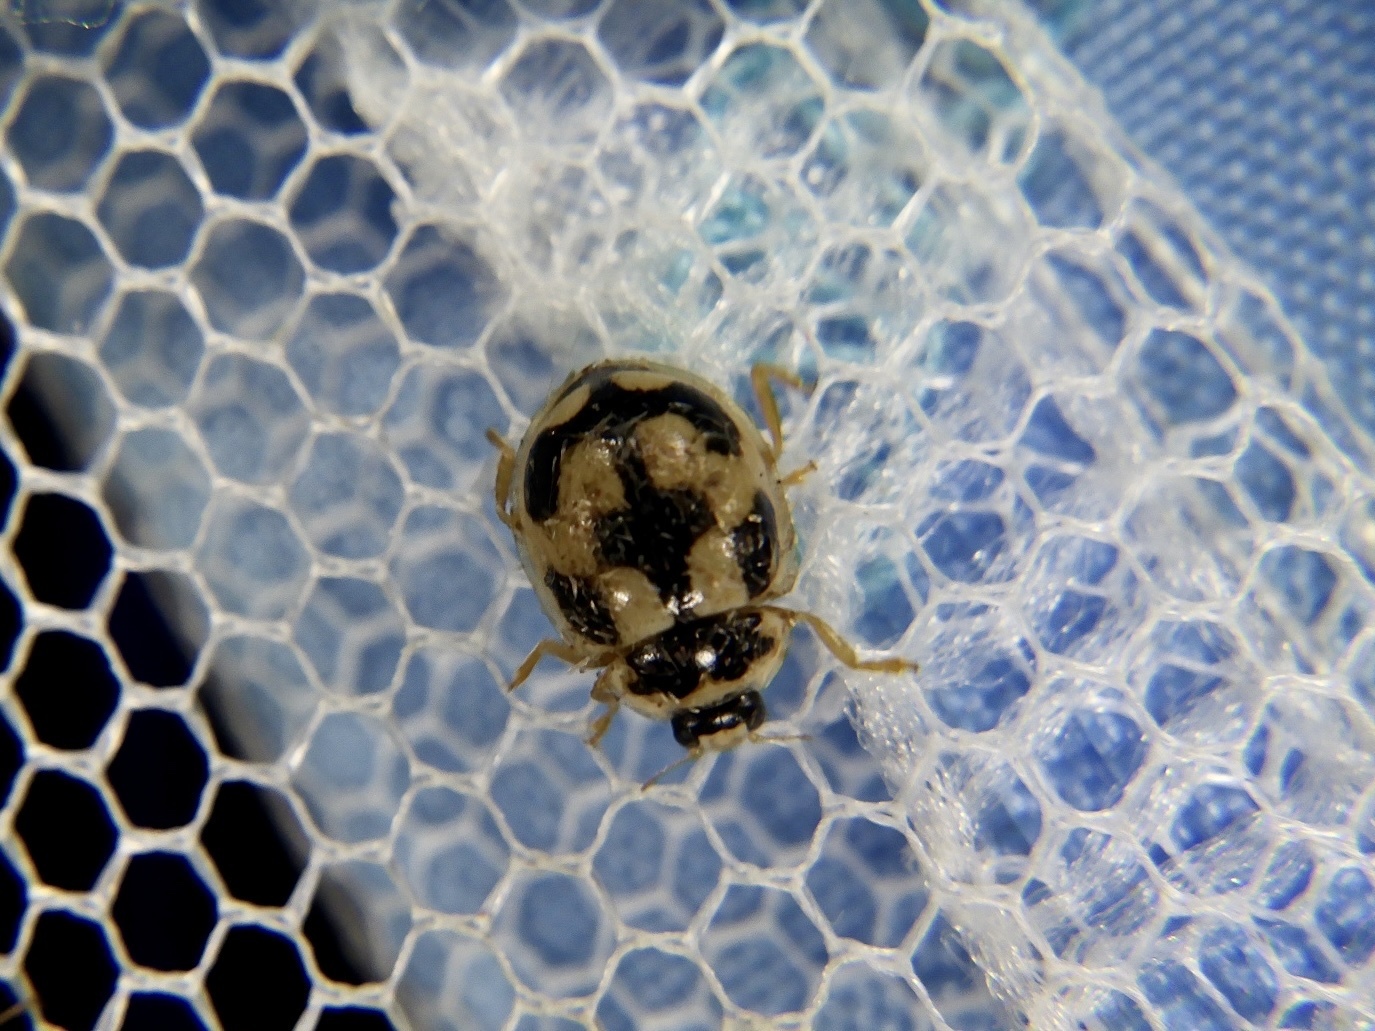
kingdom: Animalia
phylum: Arthropoda
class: Insecta
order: Coleoptera
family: Coccinellidae
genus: Propylea
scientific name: Propylea japonica
